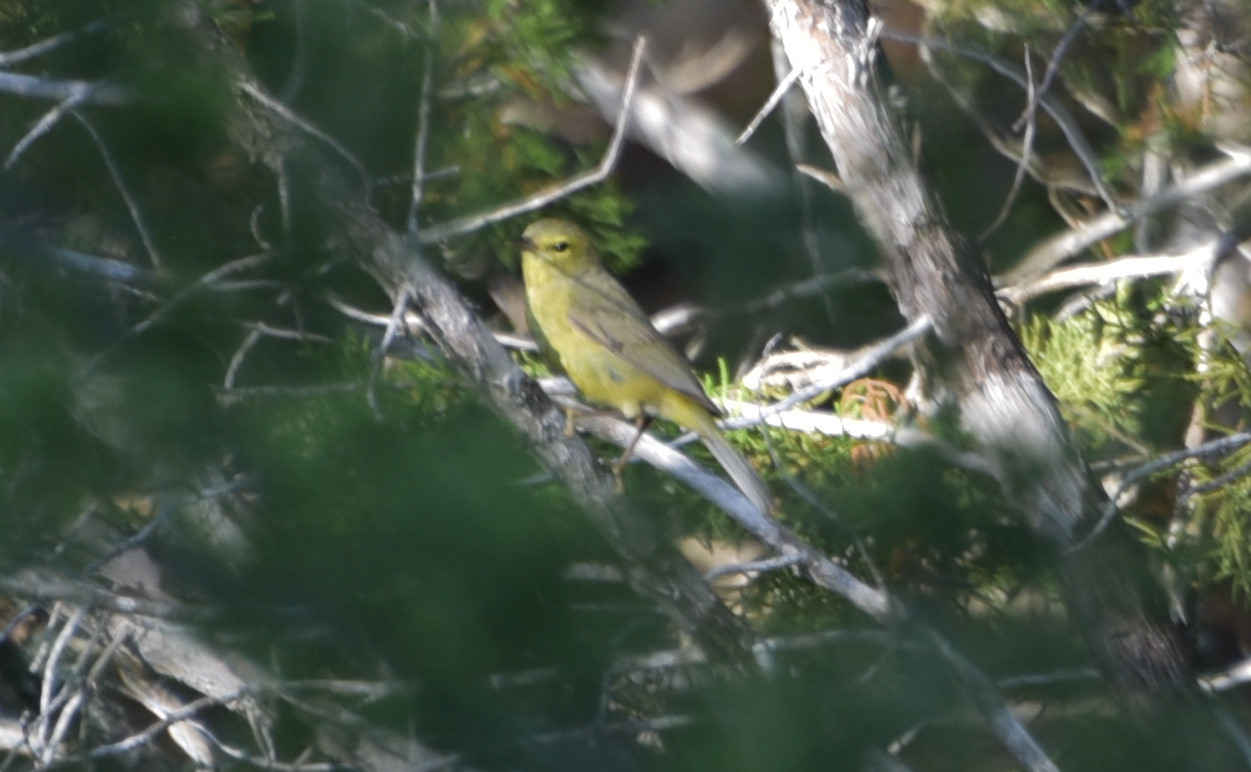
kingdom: Animalia
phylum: Chordata
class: Aves
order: Passeriformes
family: Parulidae
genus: Leiothlypis
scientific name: Leiothlypis celata
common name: Orange-crowned warbler
